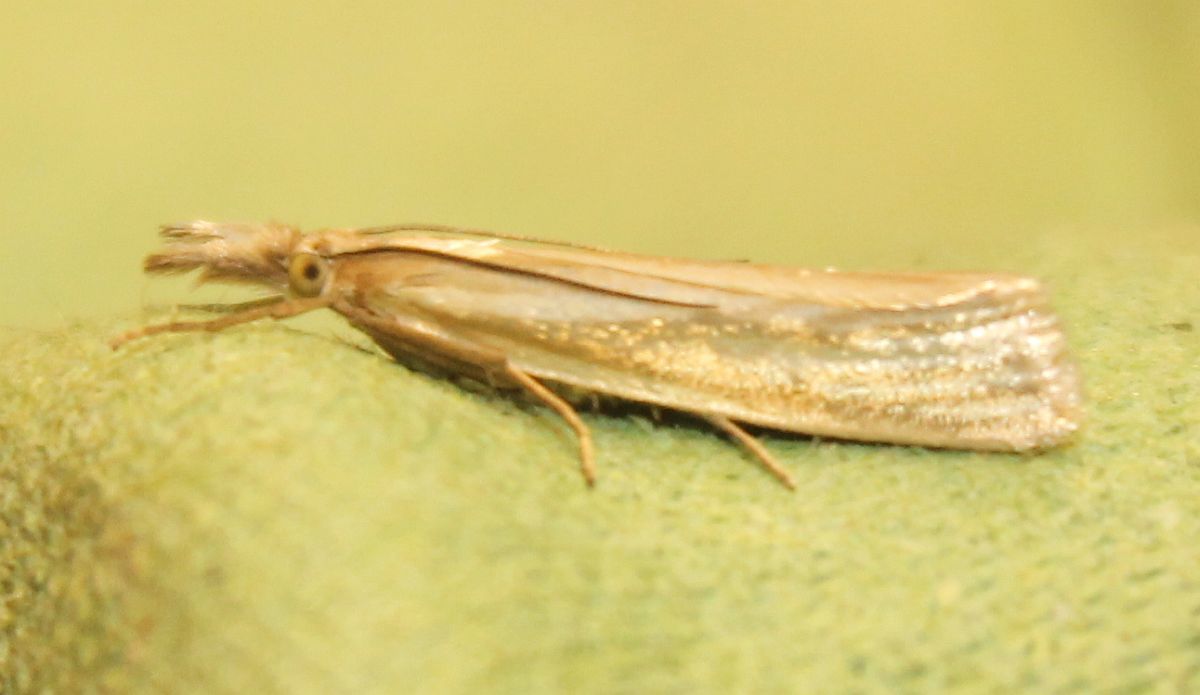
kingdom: Animalia
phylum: Arthropoda
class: Insecta
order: Lepidoptera
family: Crambidae
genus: Crambus
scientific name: Crambus perlellus
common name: Yellow satin veneer
